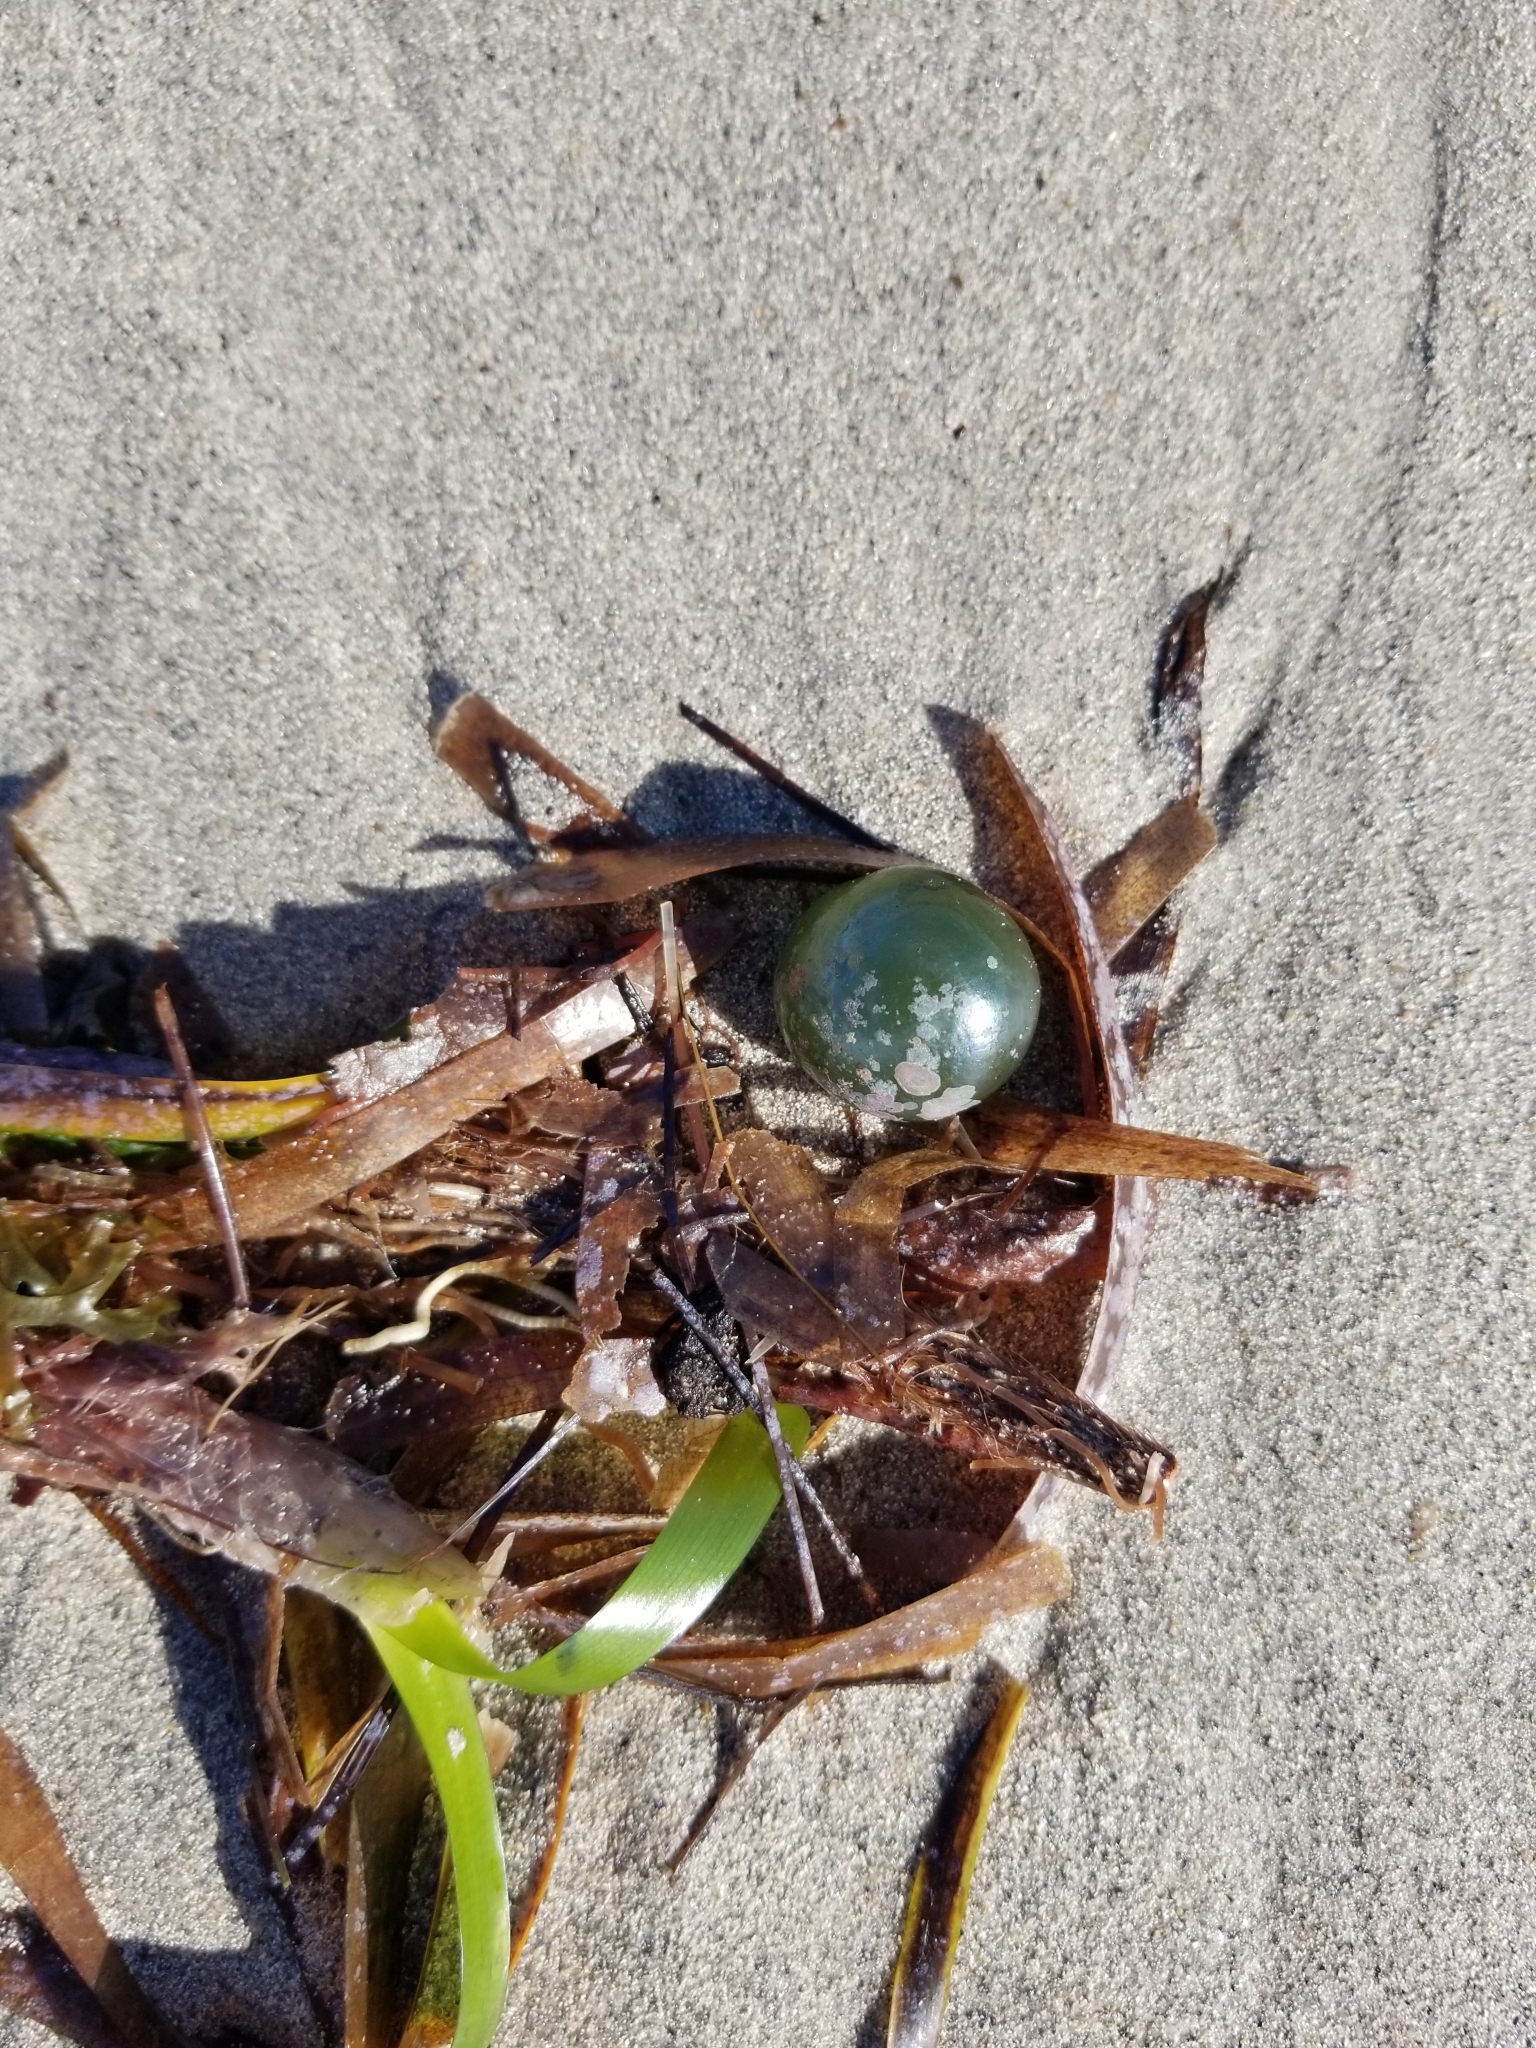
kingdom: Plantae
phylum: Chlorophyta
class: Ulvophyceae
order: Siphonocladales
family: Valoniaceae
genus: Valonia
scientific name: Valonia ventricosa
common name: Sea pearl
